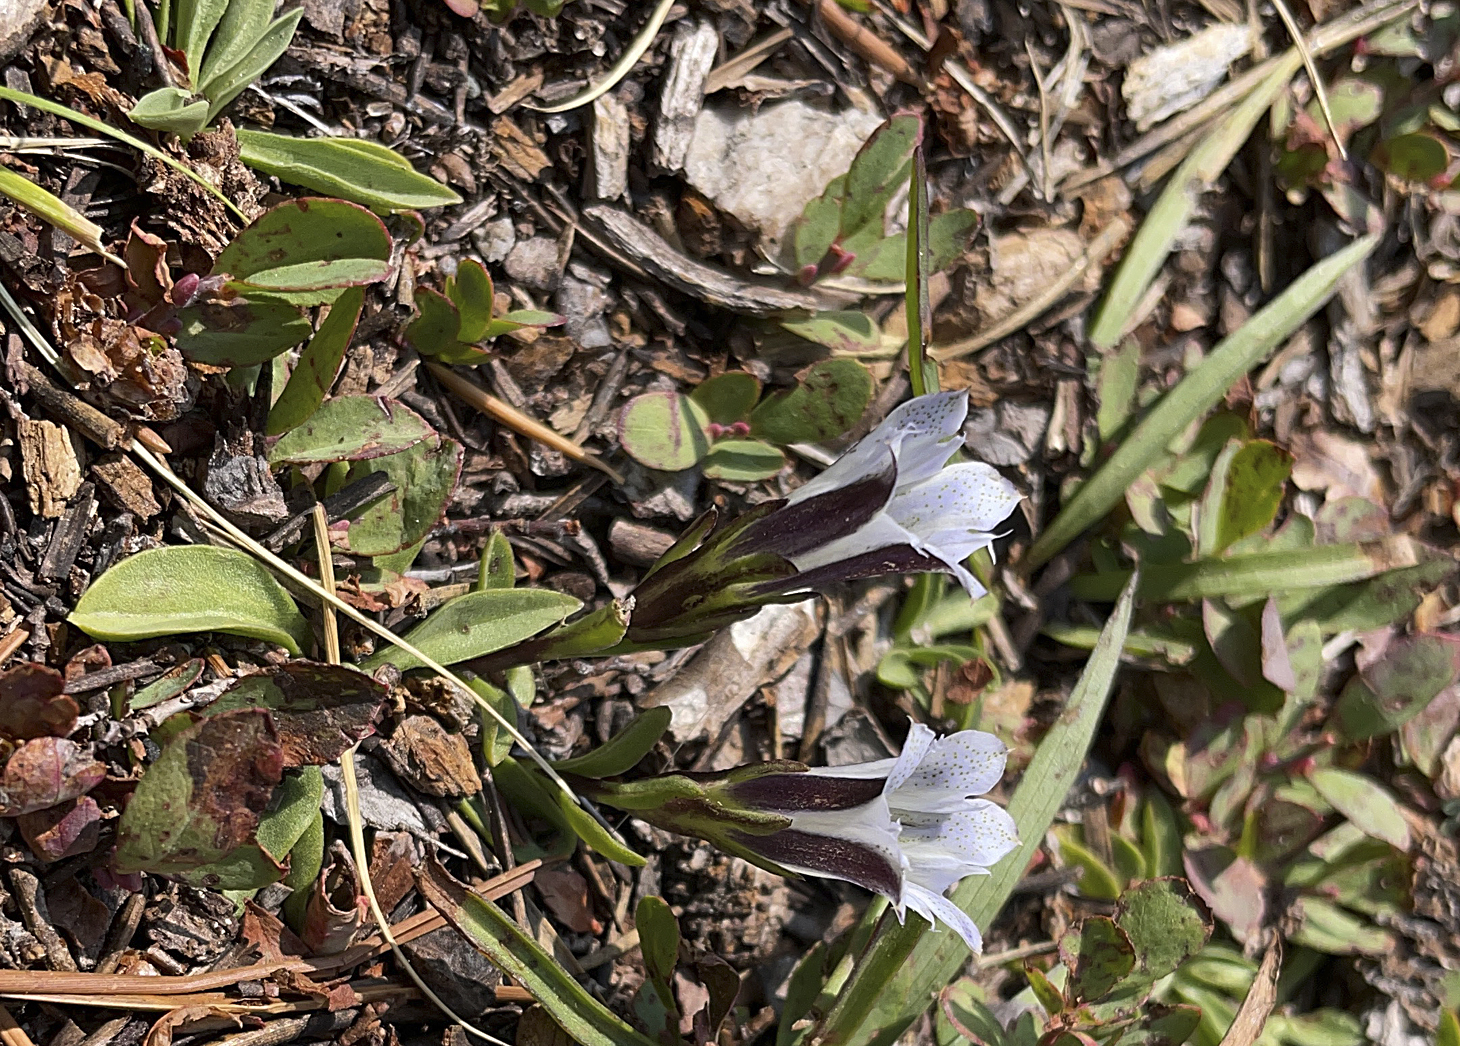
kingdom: Plantae
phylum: Tracheophyta
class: Magnoliopsida
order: Gentianales
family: Gentianaceae
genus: Gentiana
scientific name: Gentiana newberryi
